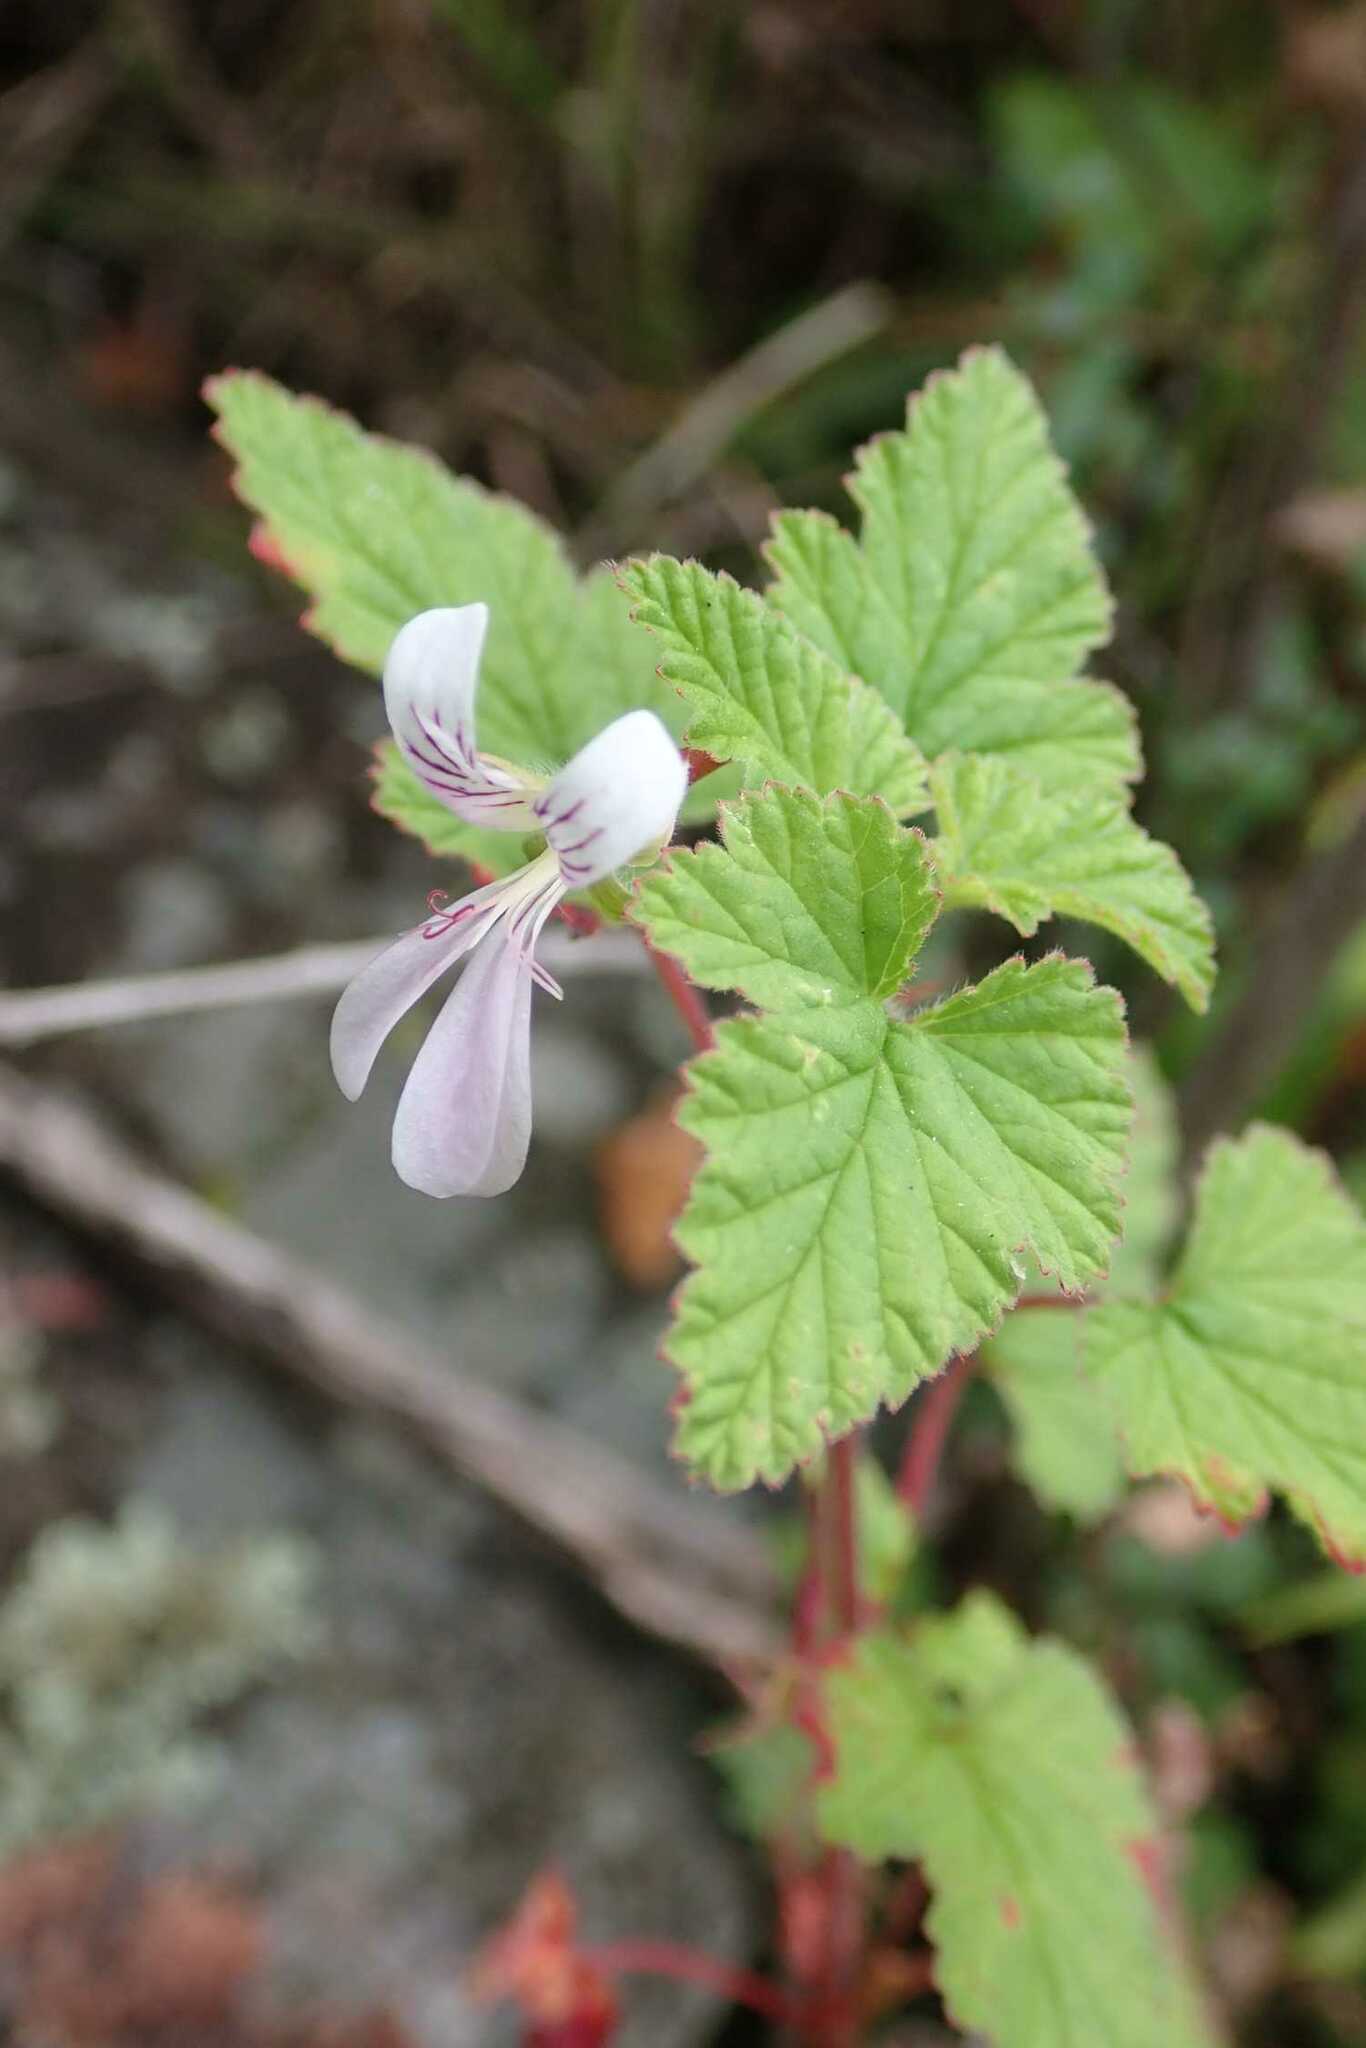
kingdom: Plantae
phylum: Tracheophyta
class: Magnoliopsida
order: Geraniales
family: Geraniaceae
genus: Pelargonium
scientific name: Pelargonium dispar
